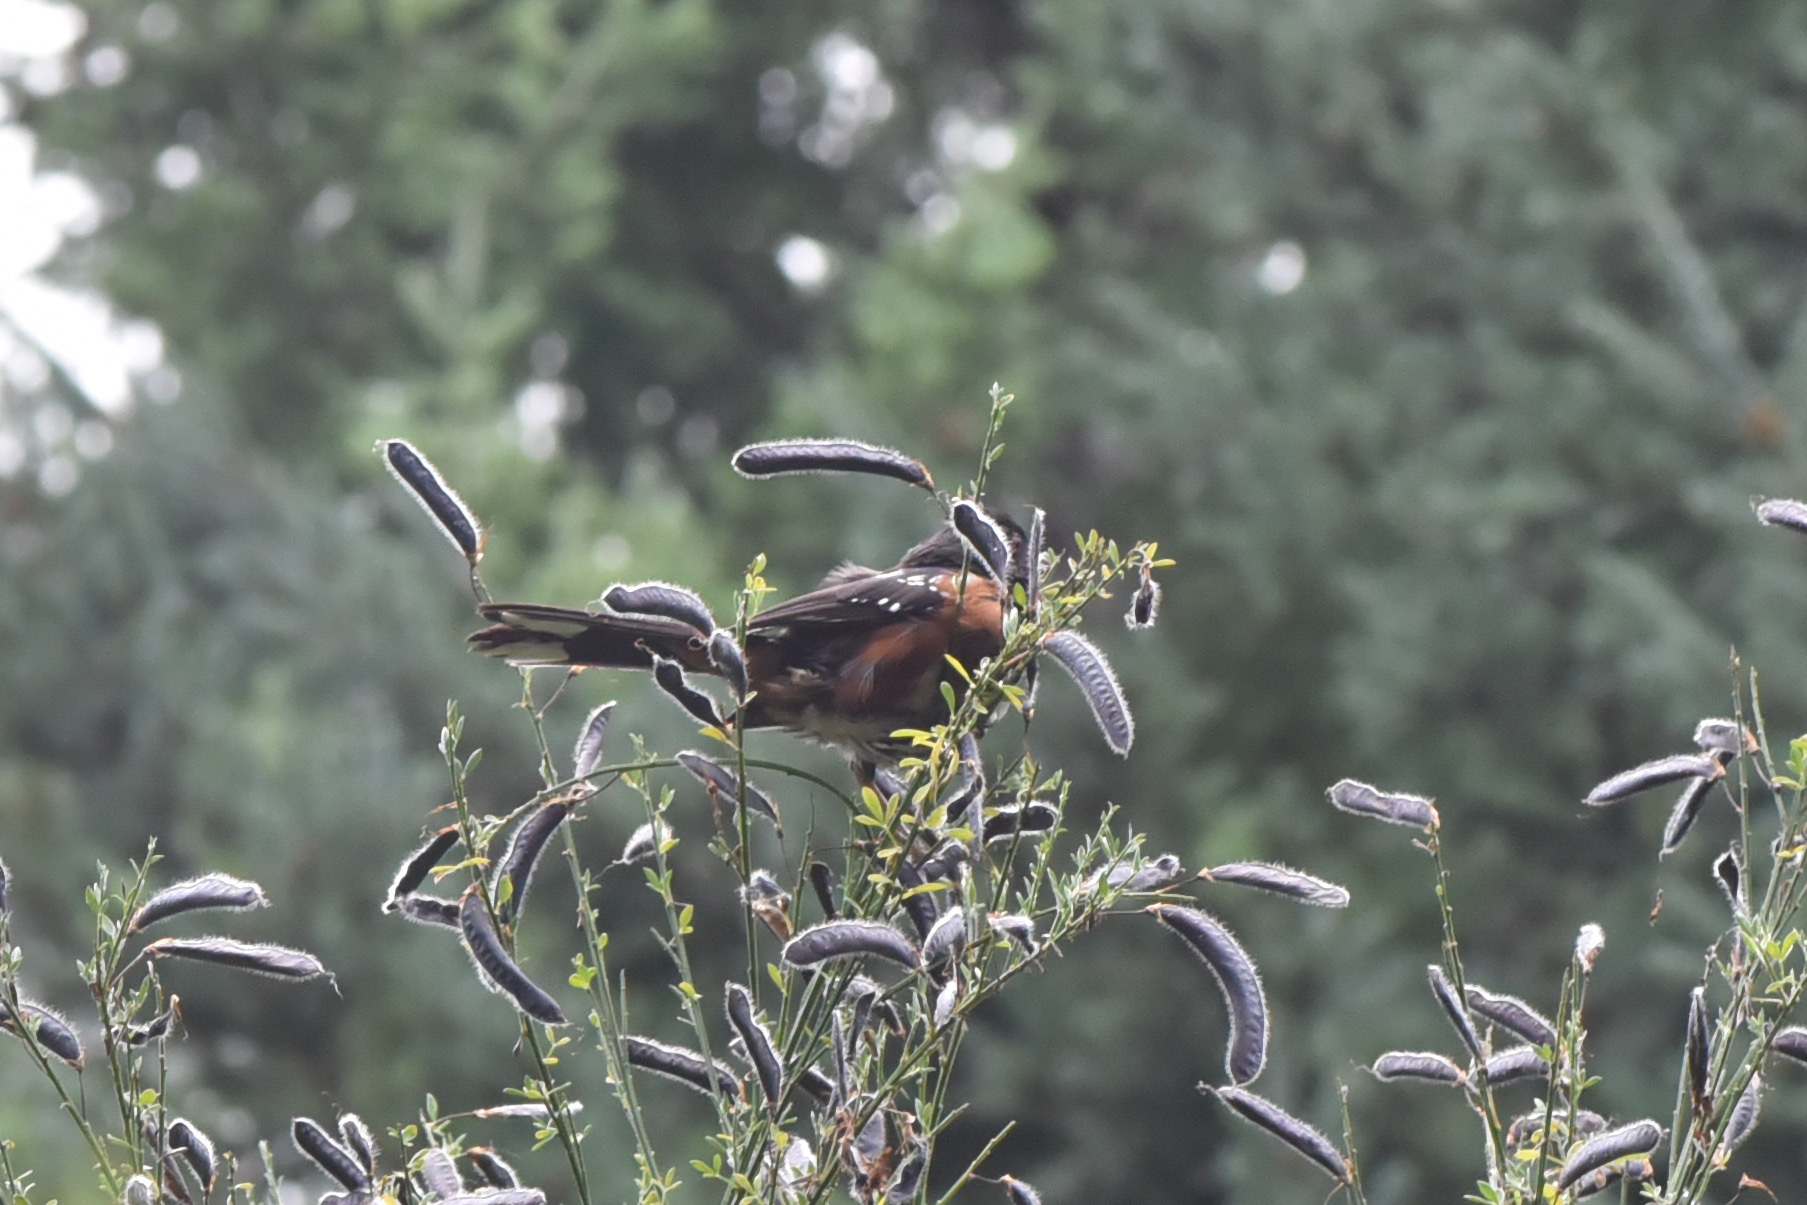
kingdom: Animalia
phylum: Chordata
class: Aves
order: Passeriformes
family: Passerellidae
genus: Pipilo
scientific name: Pipilo maculatus
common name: Spotted towhee
